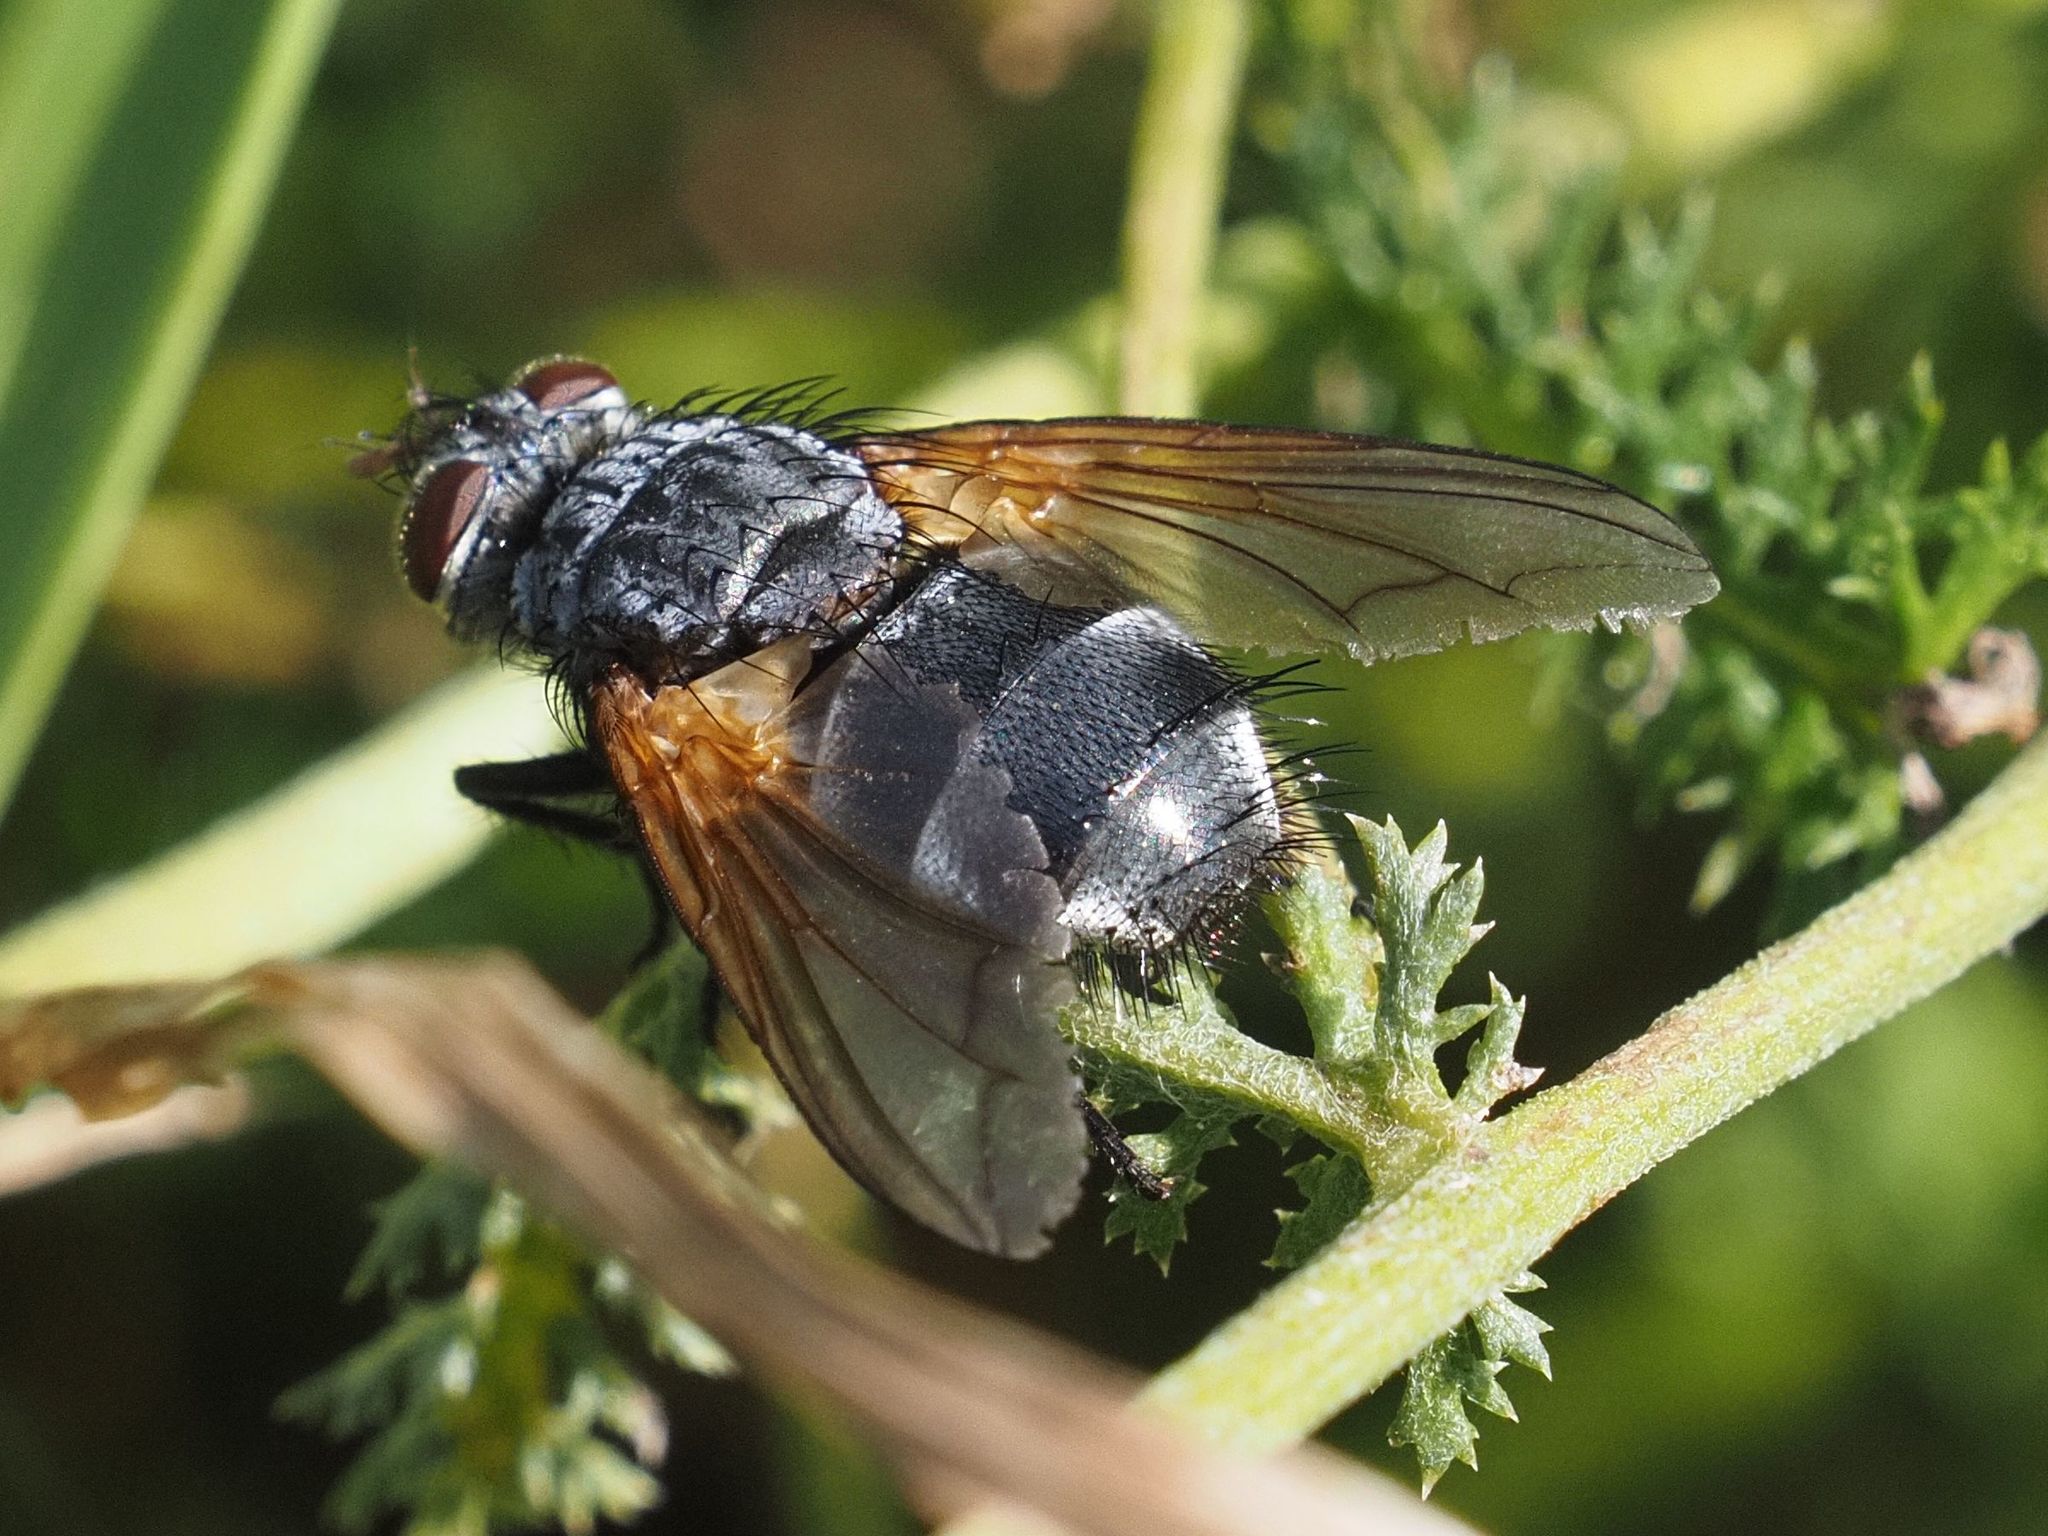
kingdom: Animalia
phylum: Arthropoda
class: Insecta
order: Diptera
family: Tachinidae
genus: Nemoraea
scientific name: Nemoraea pellucida
